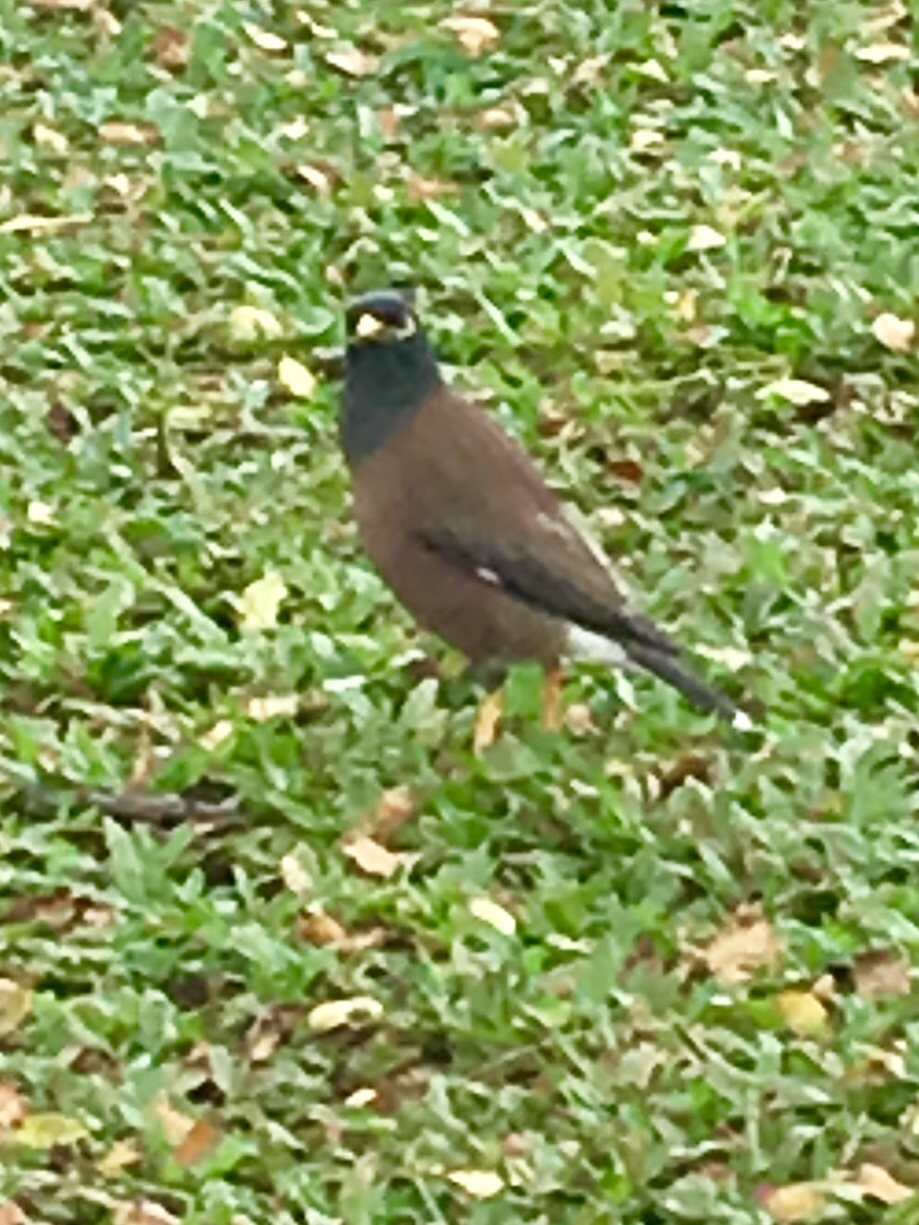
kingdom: Animalia
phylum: Chordata
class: Aves
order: Passeriformes
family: Sturnidae
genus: Acridotheres
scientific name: Acridotheres tristis
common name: Common myna
